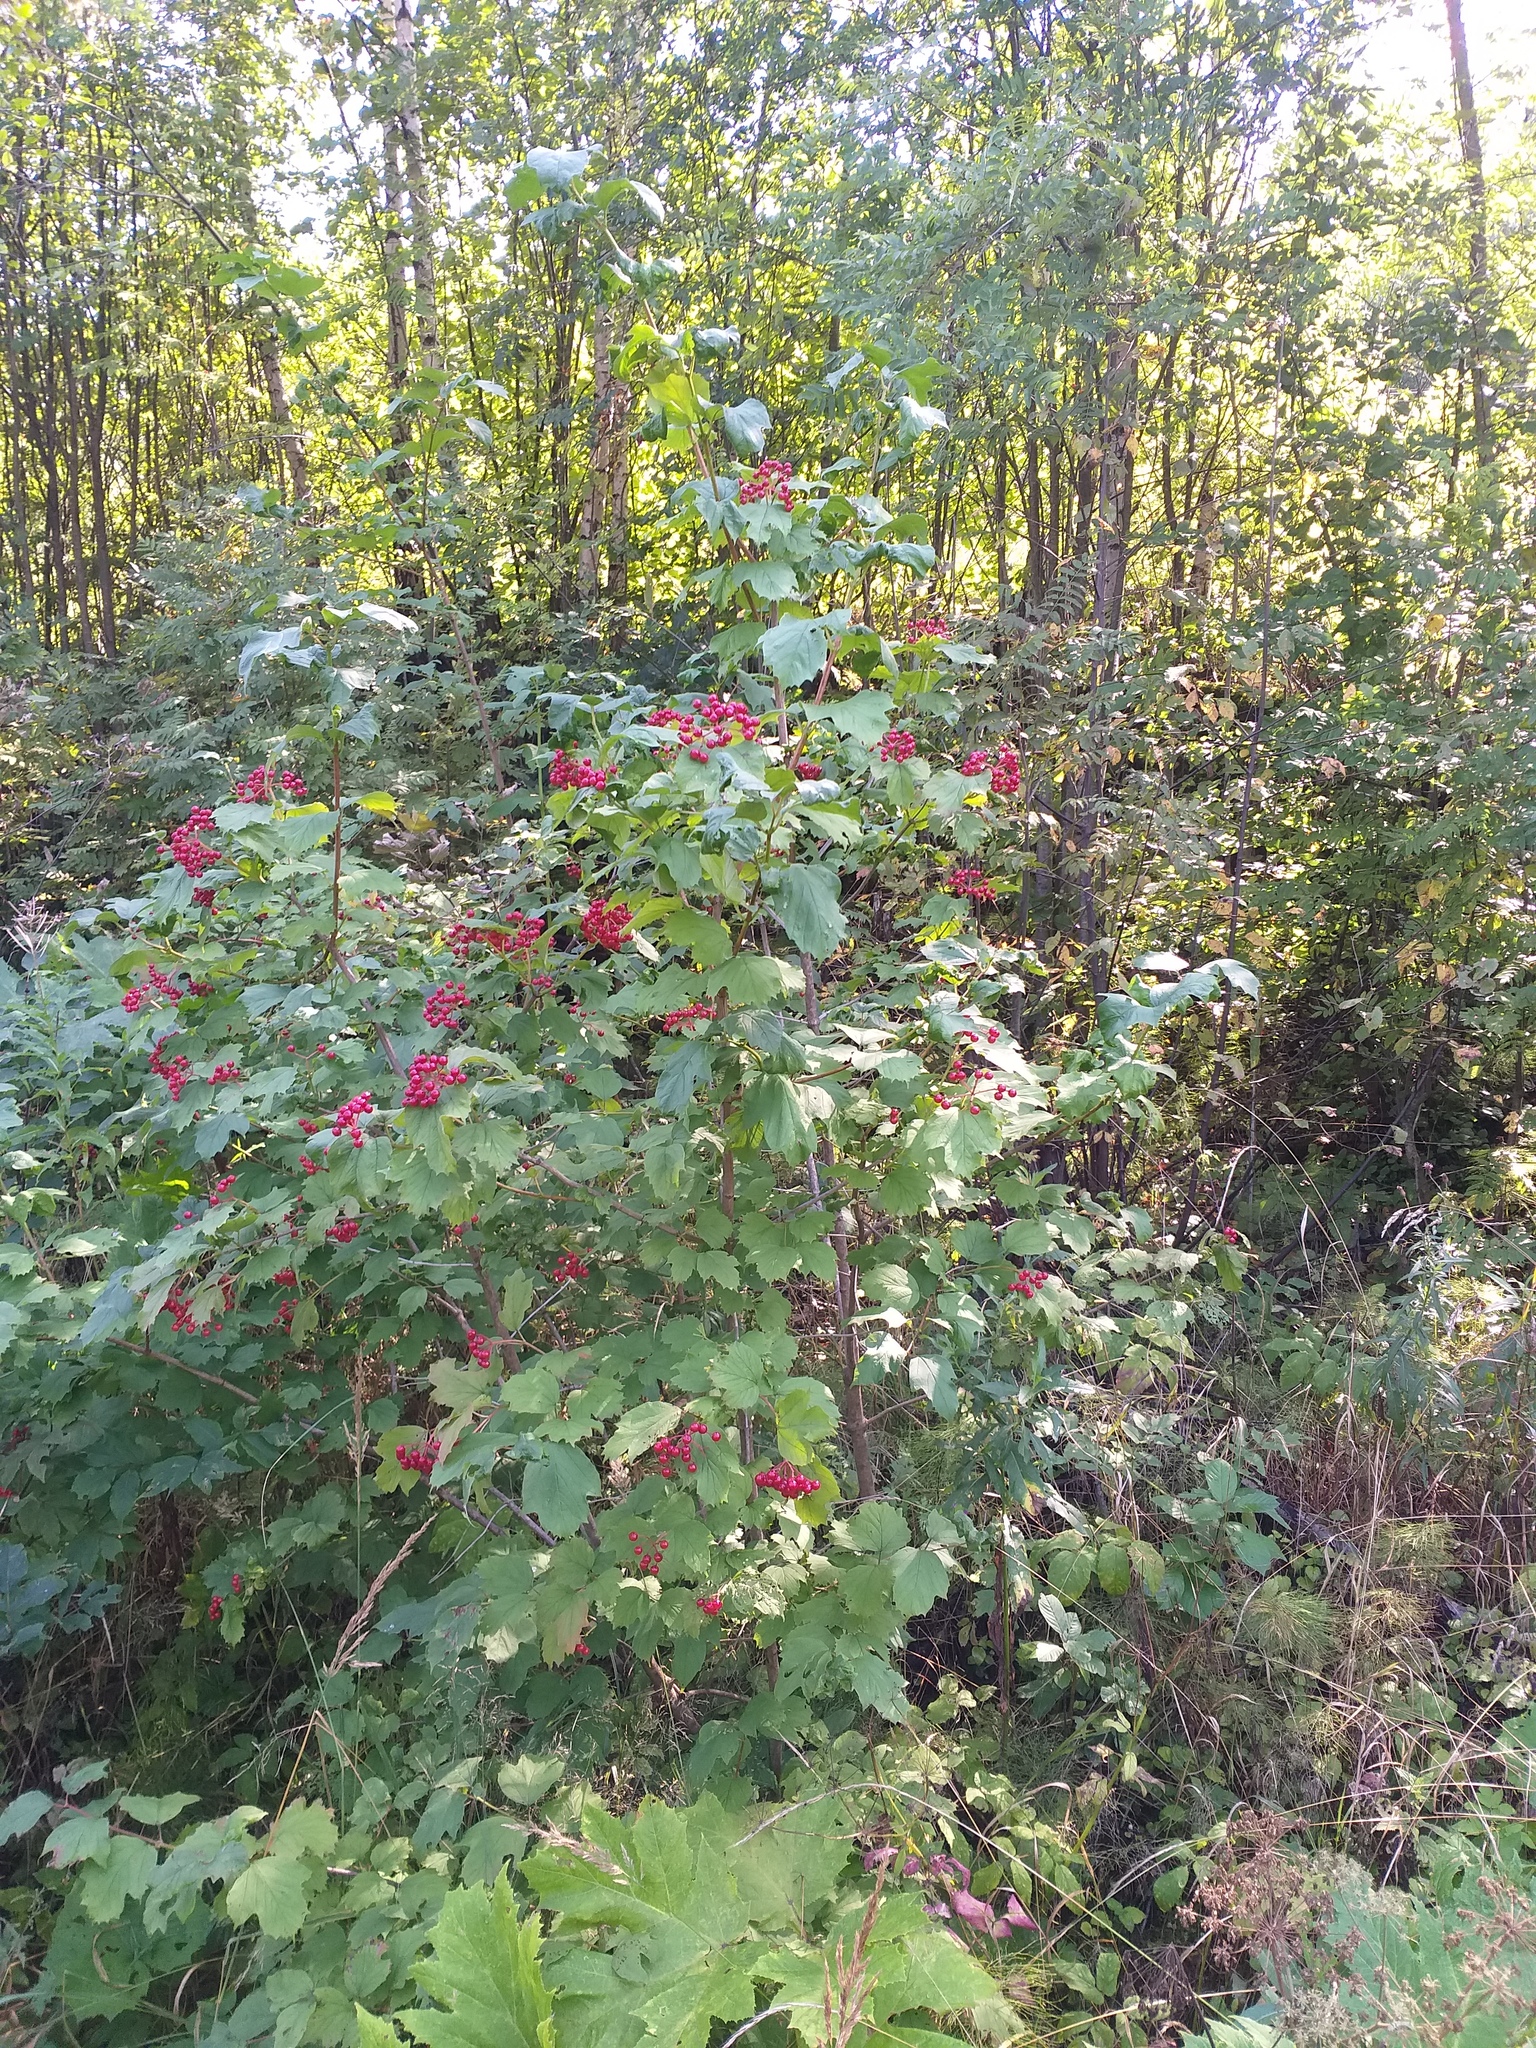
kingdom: Plantae
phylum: Tracheophyta
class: Magnoliopsida
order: Dipsacales
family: Viburnaceae
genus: Viburnum
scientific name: Viburnum opulus
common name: Guelder-rose
